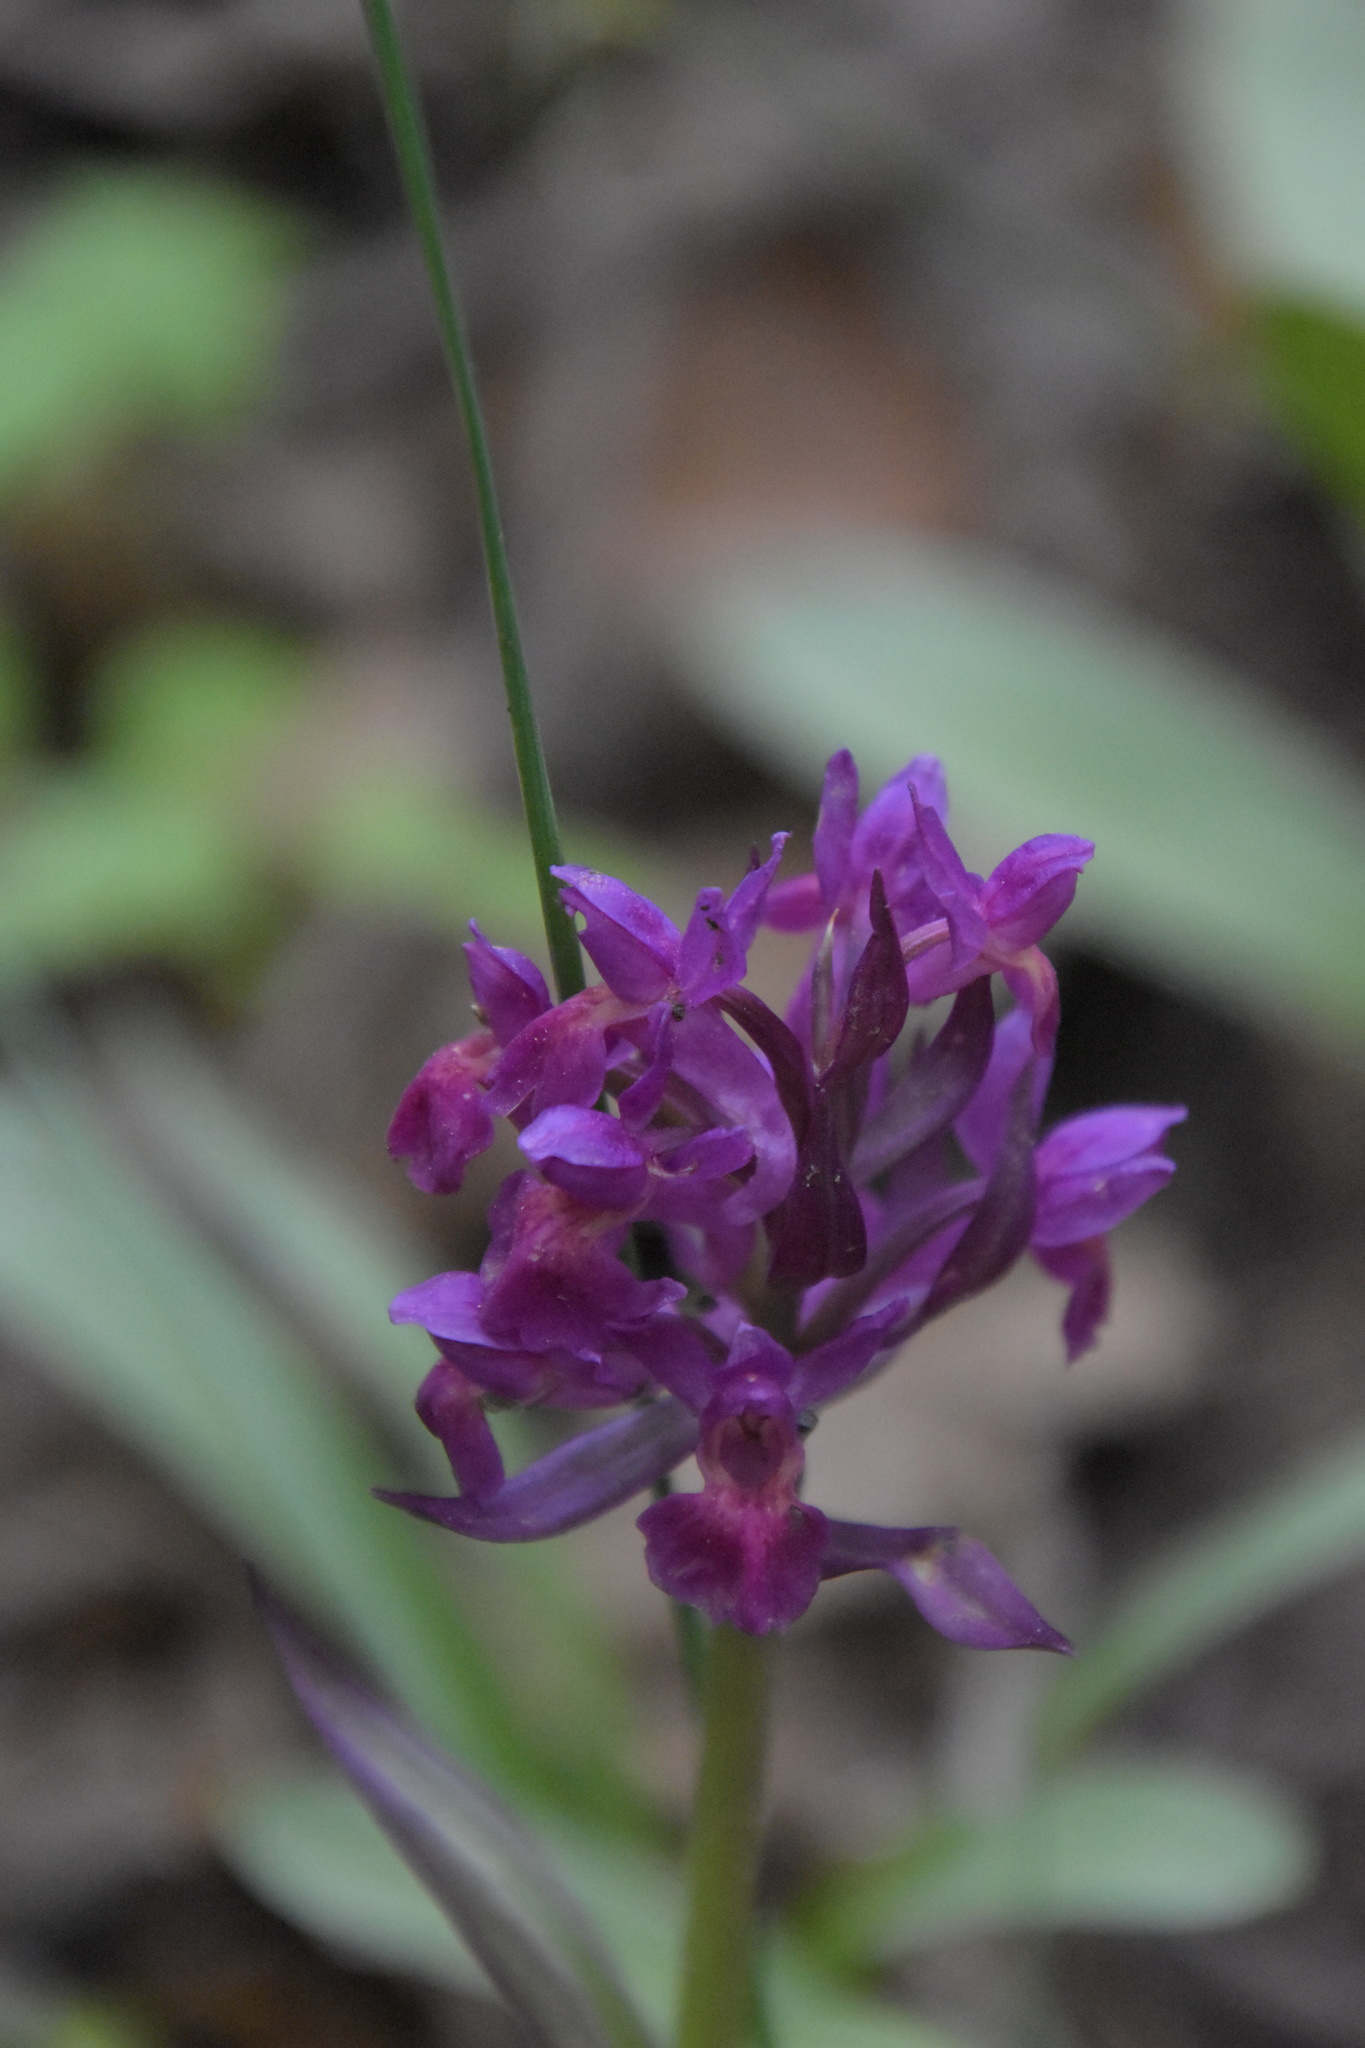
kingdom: Plantae
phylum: Tracheophyta
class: Liliopsida
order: Asparagales
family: Orchidaceae
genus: Dactylorhiza
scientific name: Dactylorhiza sambucina
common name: Elder-flowered orchid
